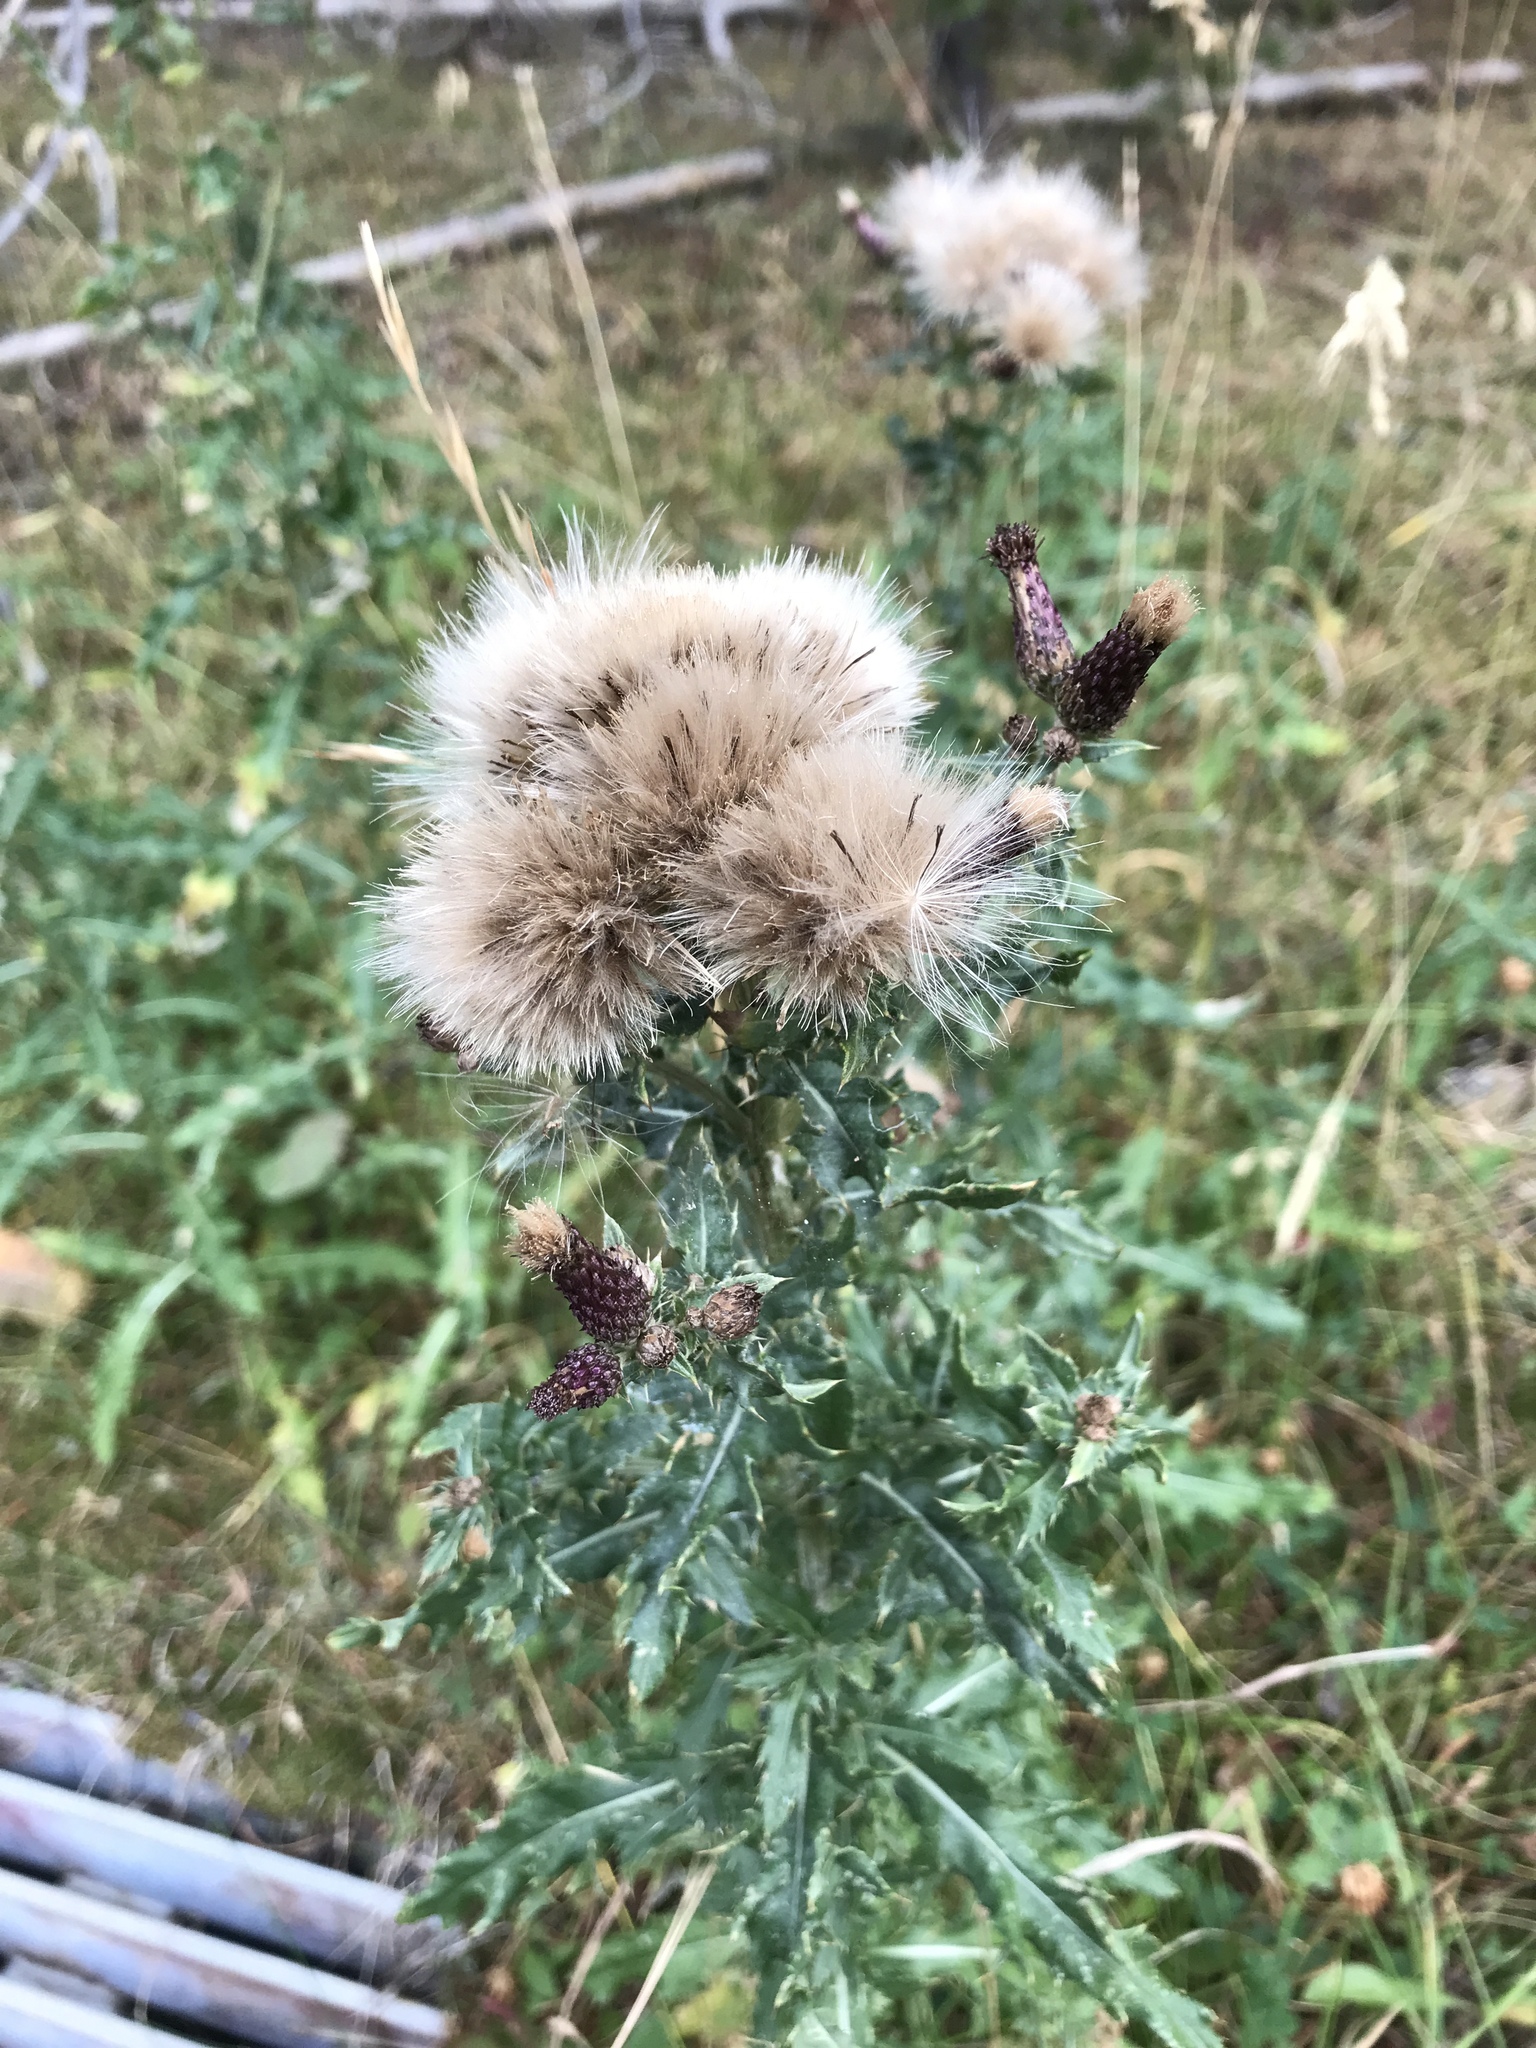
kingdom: Plantae
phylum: Tracheophyta
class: Magnoliopsida
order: Asterales
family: Asteraceae
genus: Cirsium
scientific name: Cirsium arvense
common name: Creeping thistle
